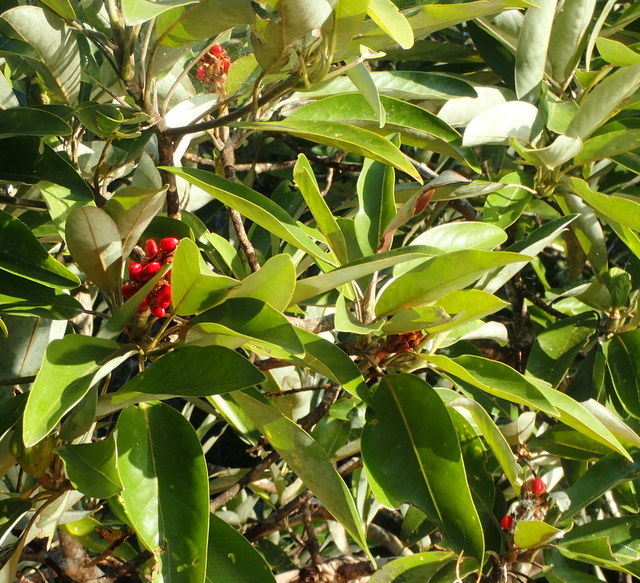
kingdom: Plantae
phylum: Tracheophyta
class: Magnoliopsida
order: Magnoliales
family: Magnoliaceae
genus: Magnolia
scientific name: Magnolia virginiana
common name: Swamp bay
